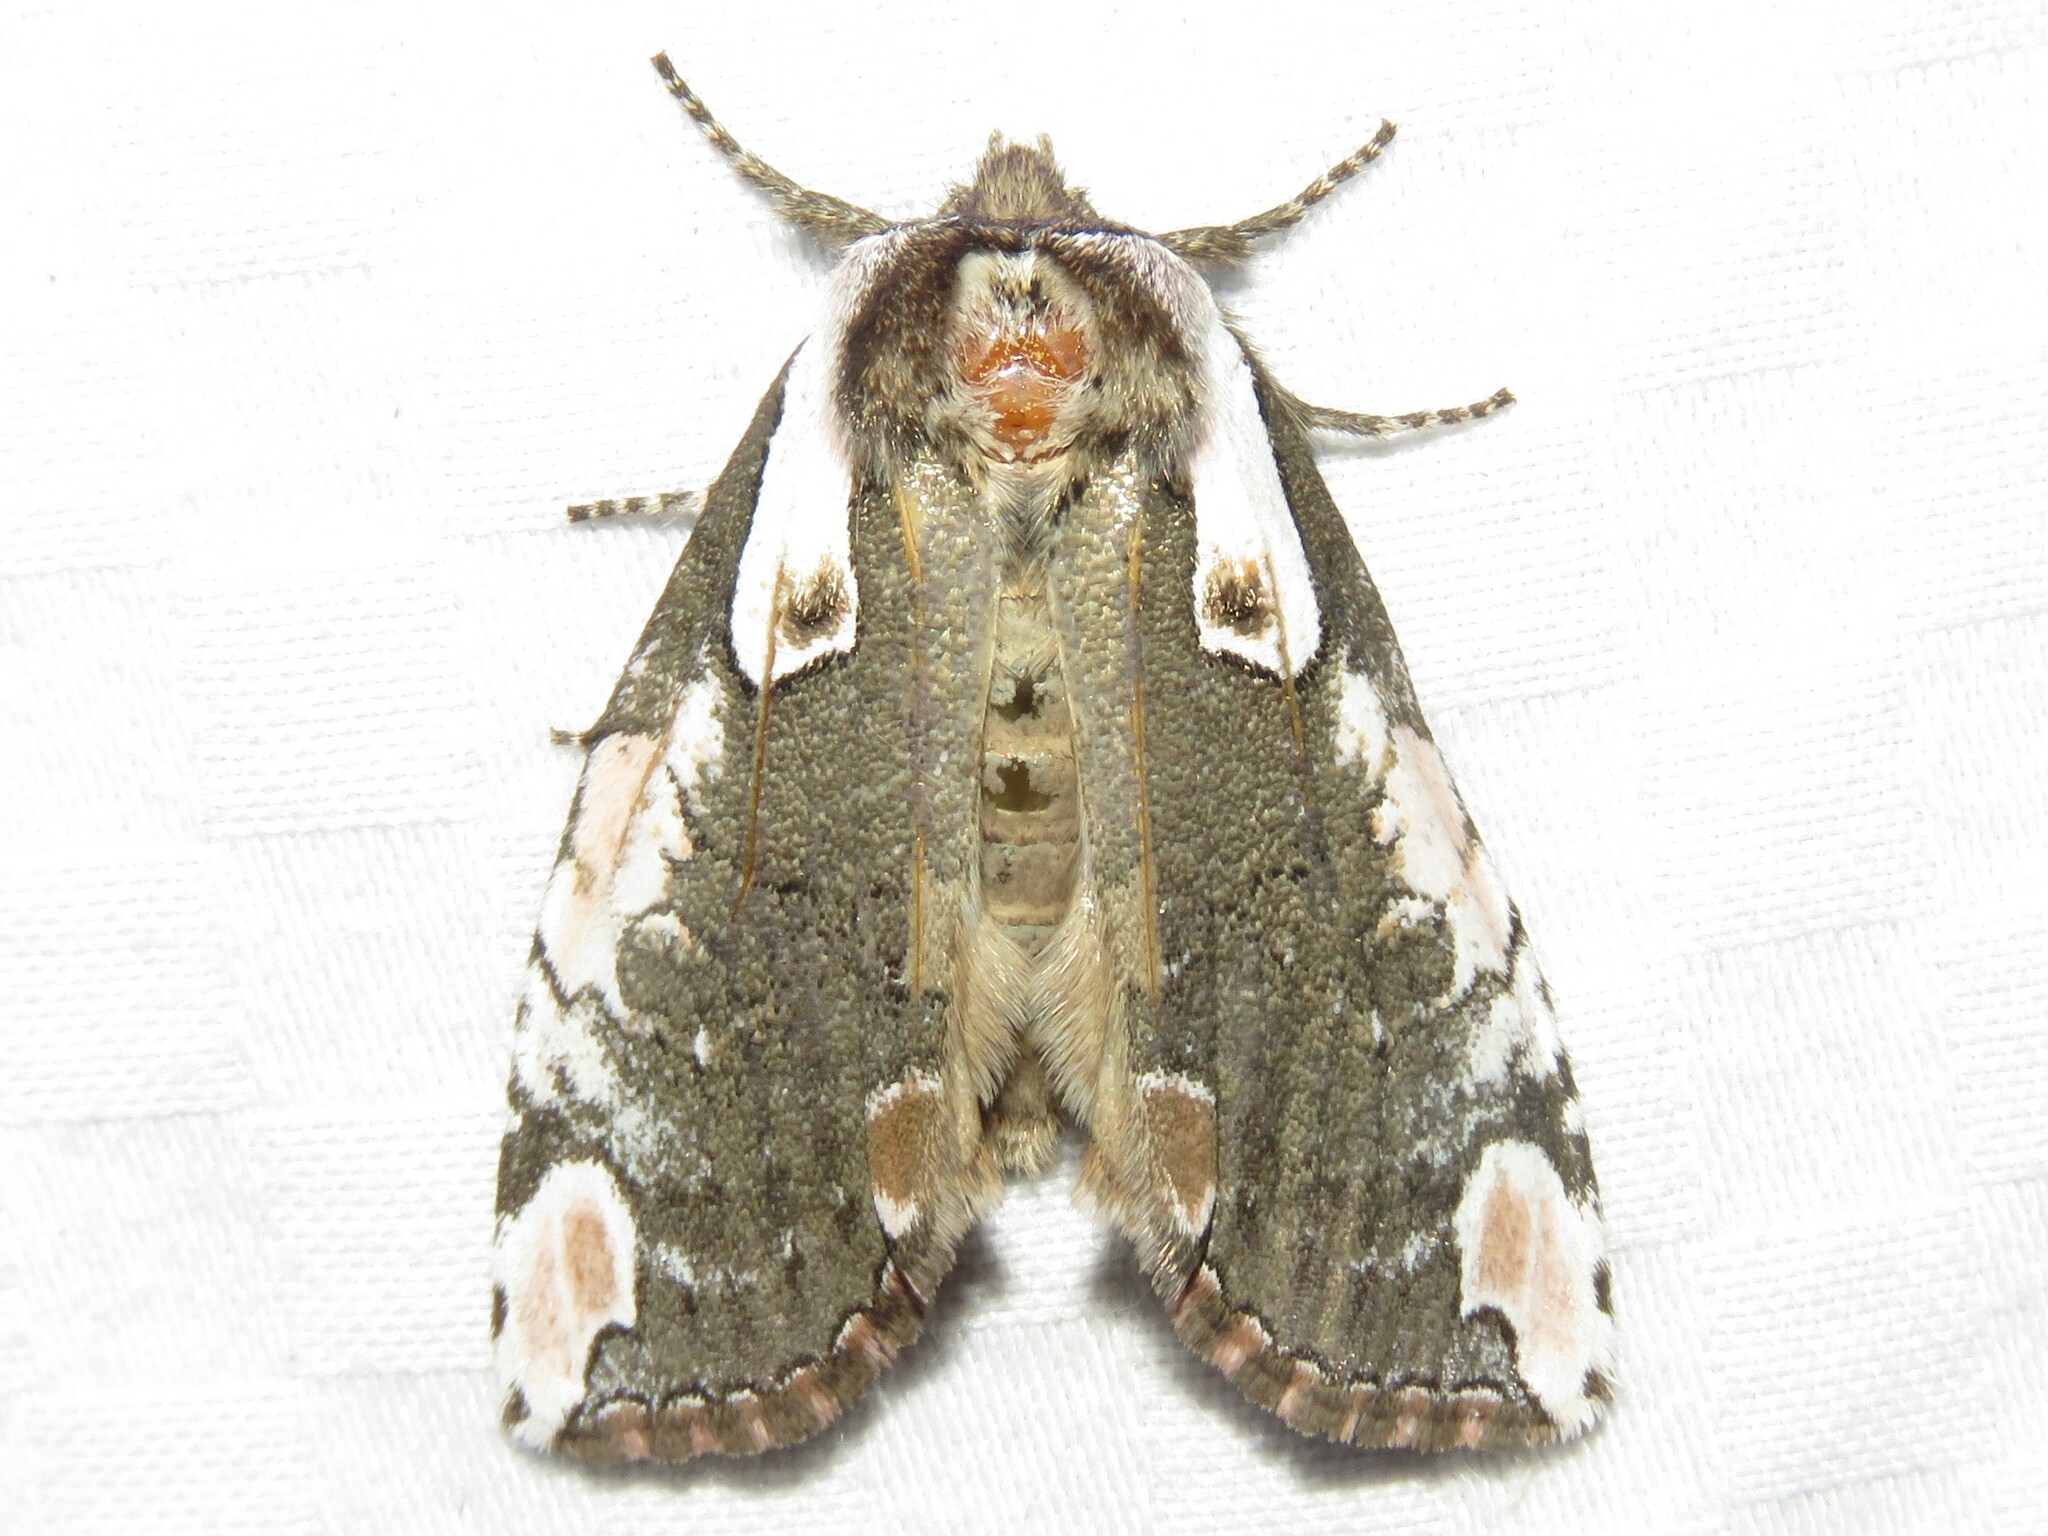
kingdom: Animalia
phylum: Arthropoda
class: Insecta
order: Lepidoptera
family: Drepanidae
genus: Euthyatira
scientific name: Euthyatira pudens
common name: Dogwood thyatirid moth
